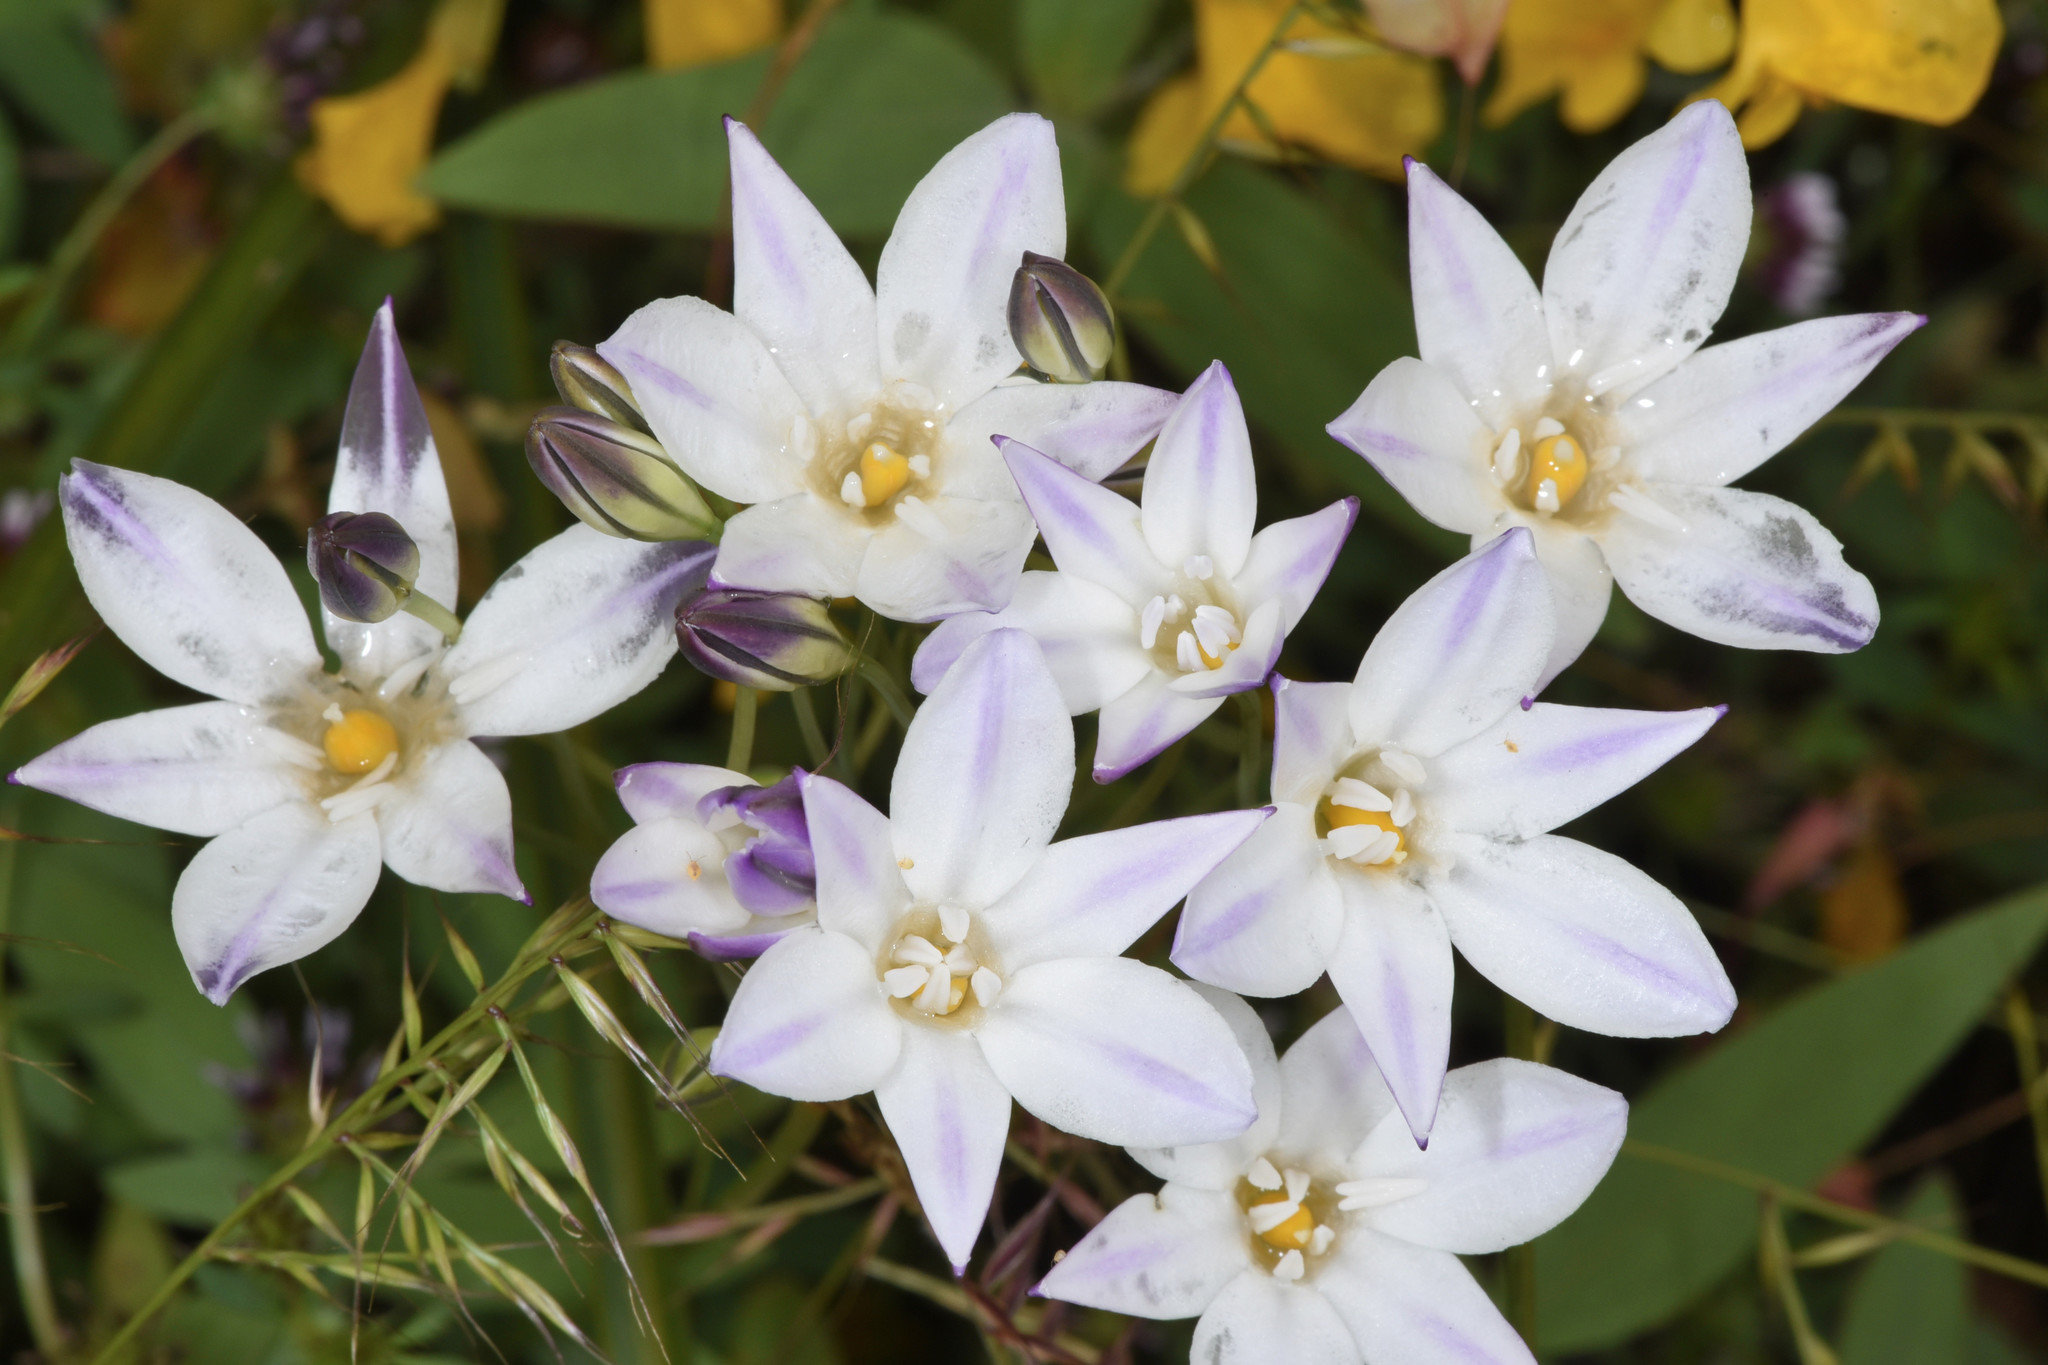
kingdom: Plantae
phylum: Tracheophyta
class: Liliopsida
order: Asparagales
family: Asparagaceae
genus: Triteleia
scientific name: Triteleia peduncularis
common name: Long-ray brodiaea
